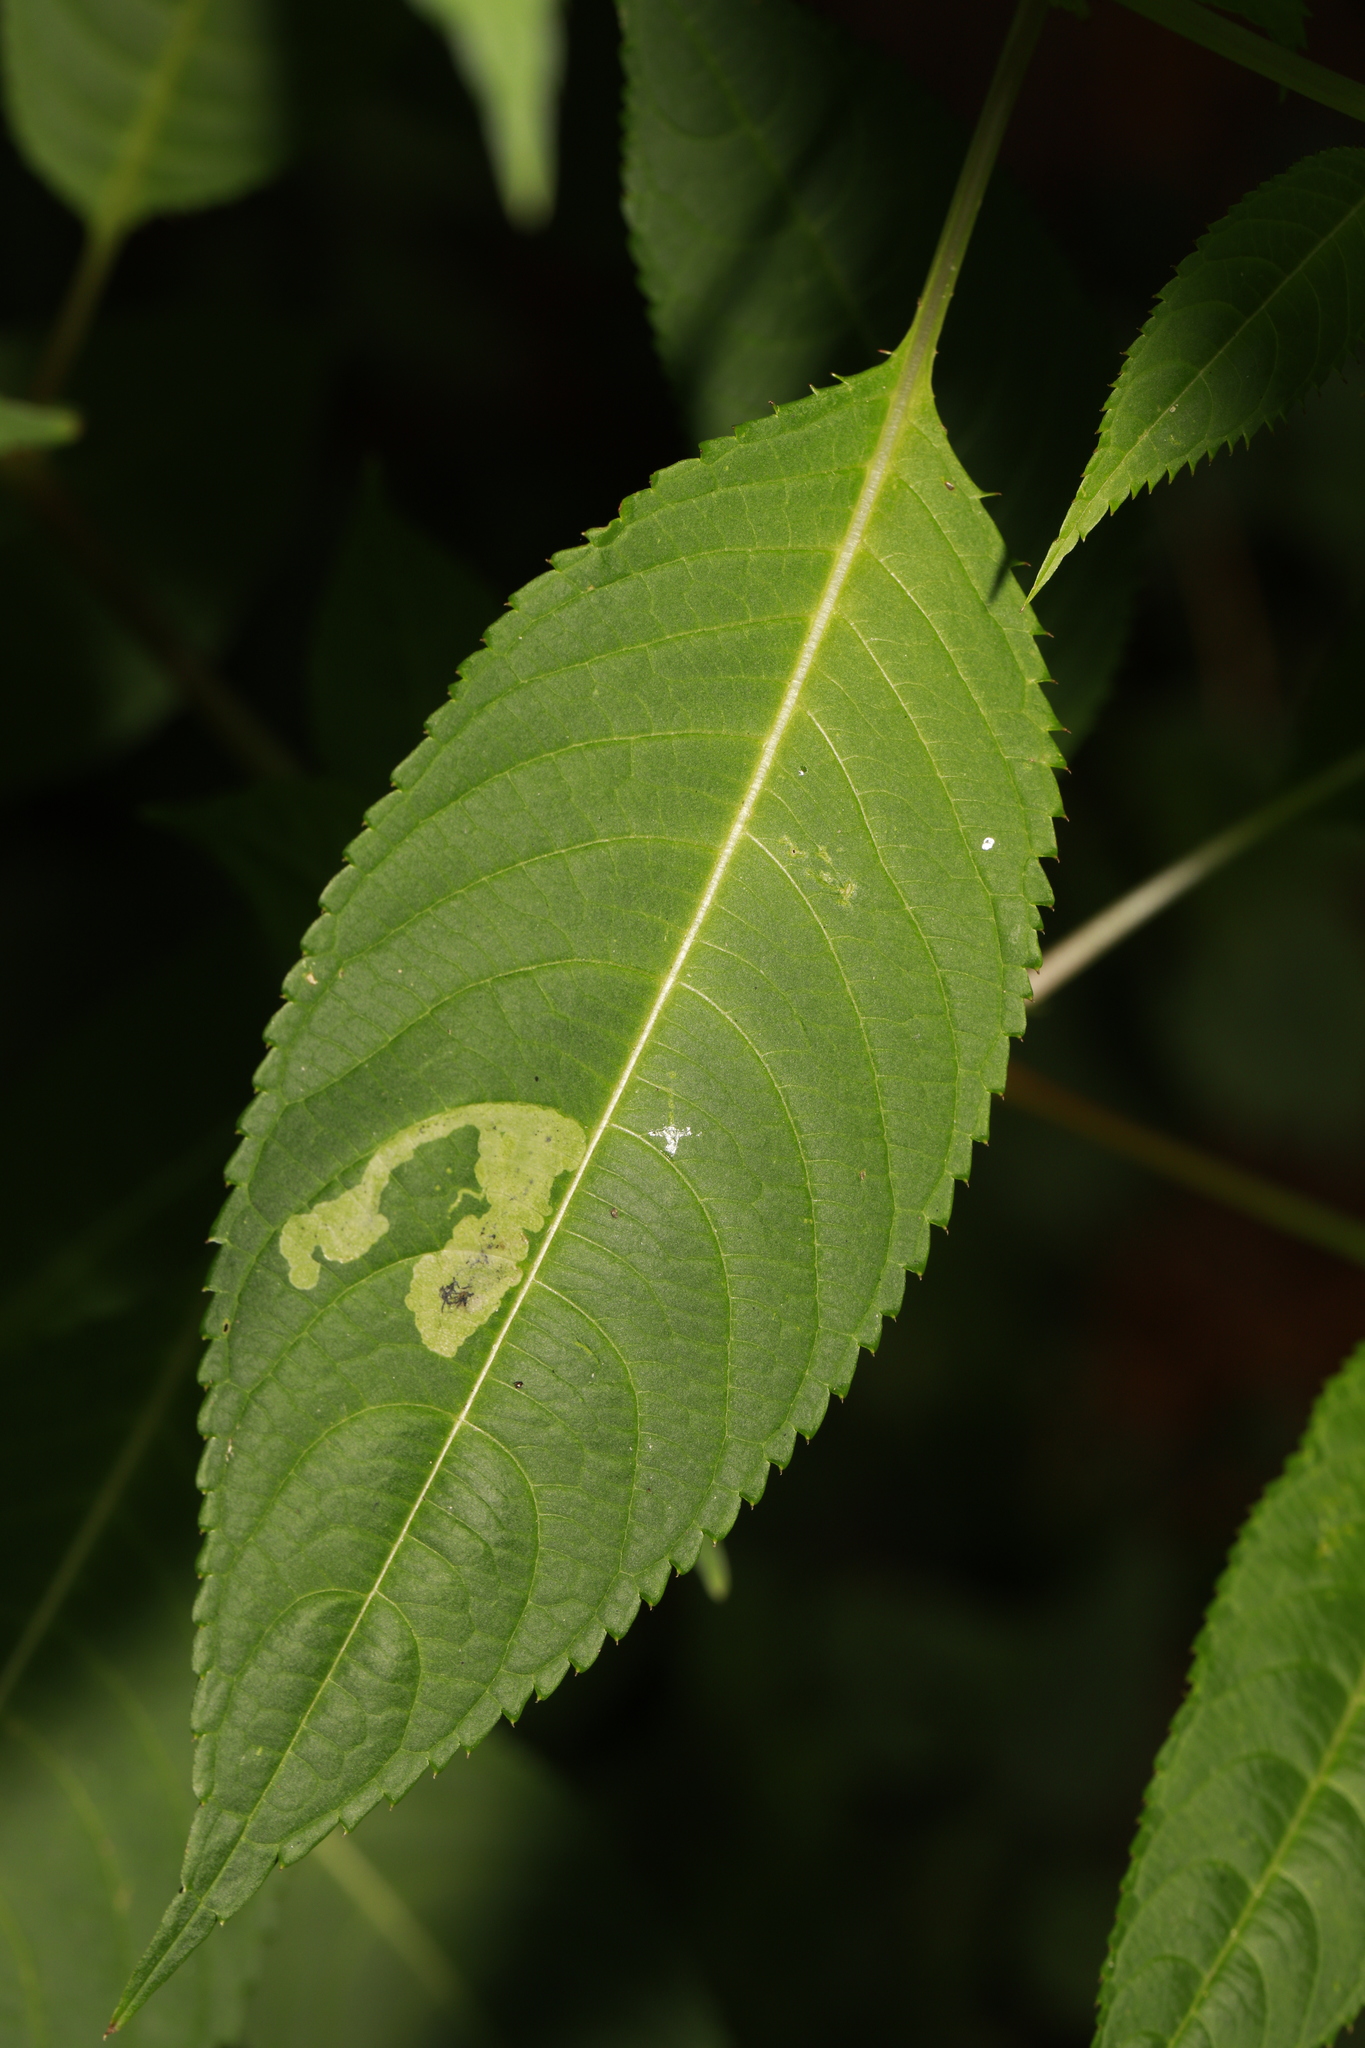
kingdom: Animalia
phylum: Arthropoda
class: Insecta
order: Diptera
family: Agromyzidae
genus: Phytoliriomyza
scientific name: Phytoliriomyza melampyga
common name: Jewelweed leaf-miner fly
